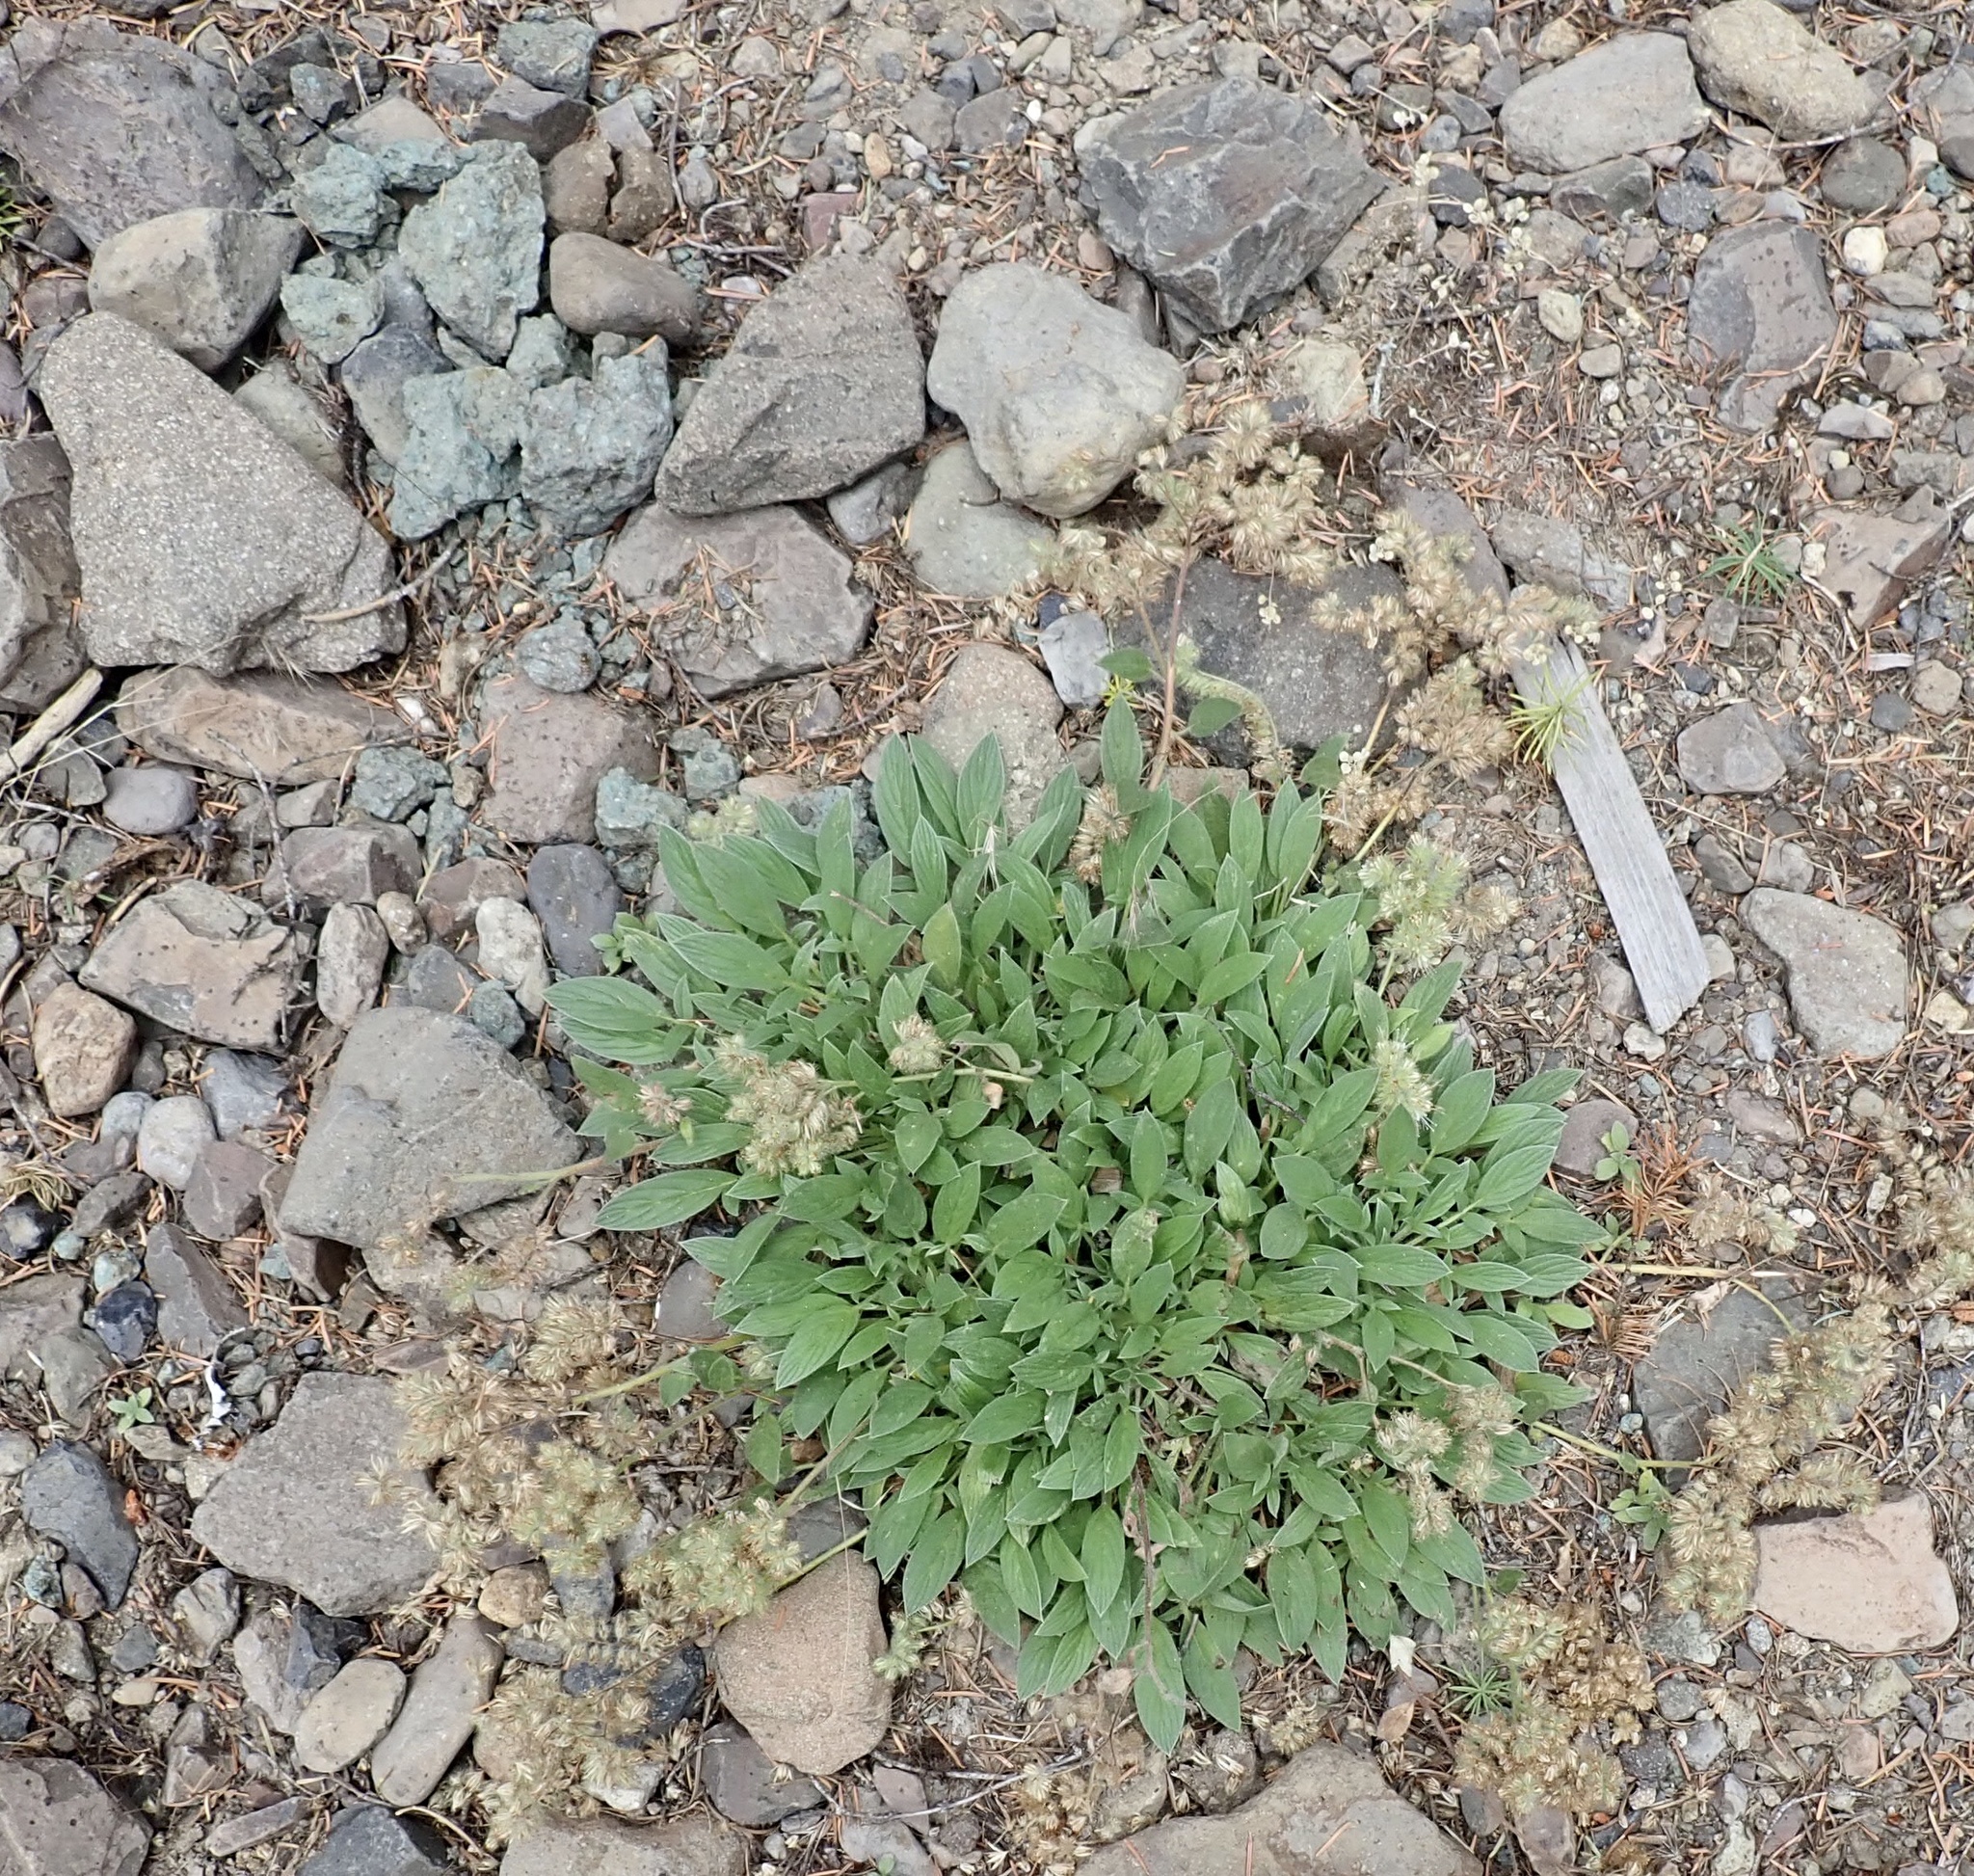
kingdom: Plantae
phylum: Tracheophyta
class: Magnoliopsida
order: Boraginales
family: Hydrophyllaceae
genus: Phacelia
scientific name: Phacelia hastata
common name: Silver-leaved phacelia
